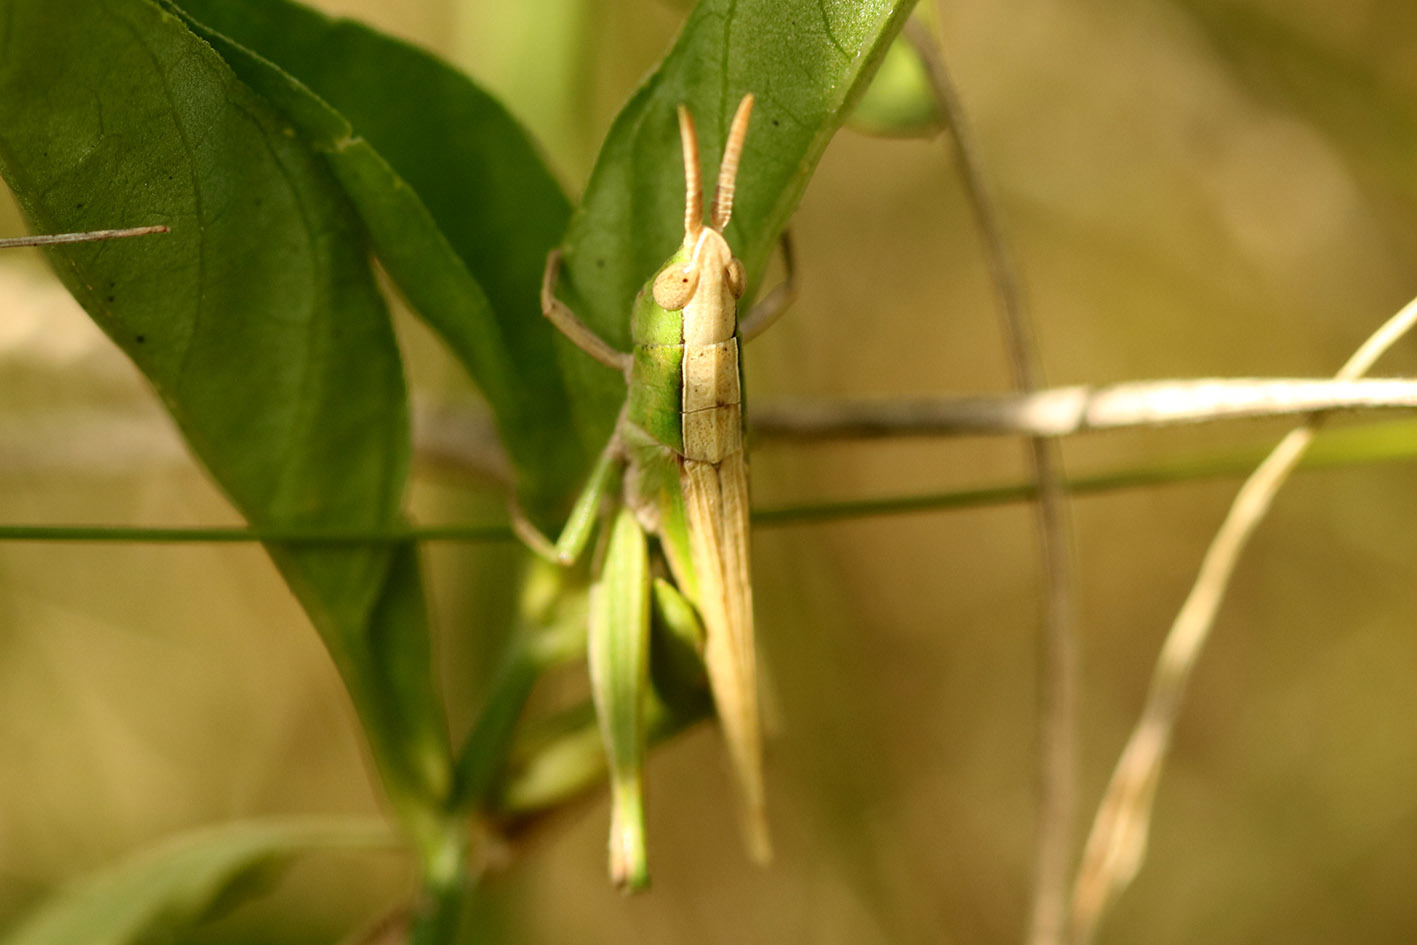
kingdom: Animalia
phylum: Arthropoda
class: Insecta
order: Orthoptera
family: Acrididae
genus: Laplatacris
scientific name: Laplatacris dispar
